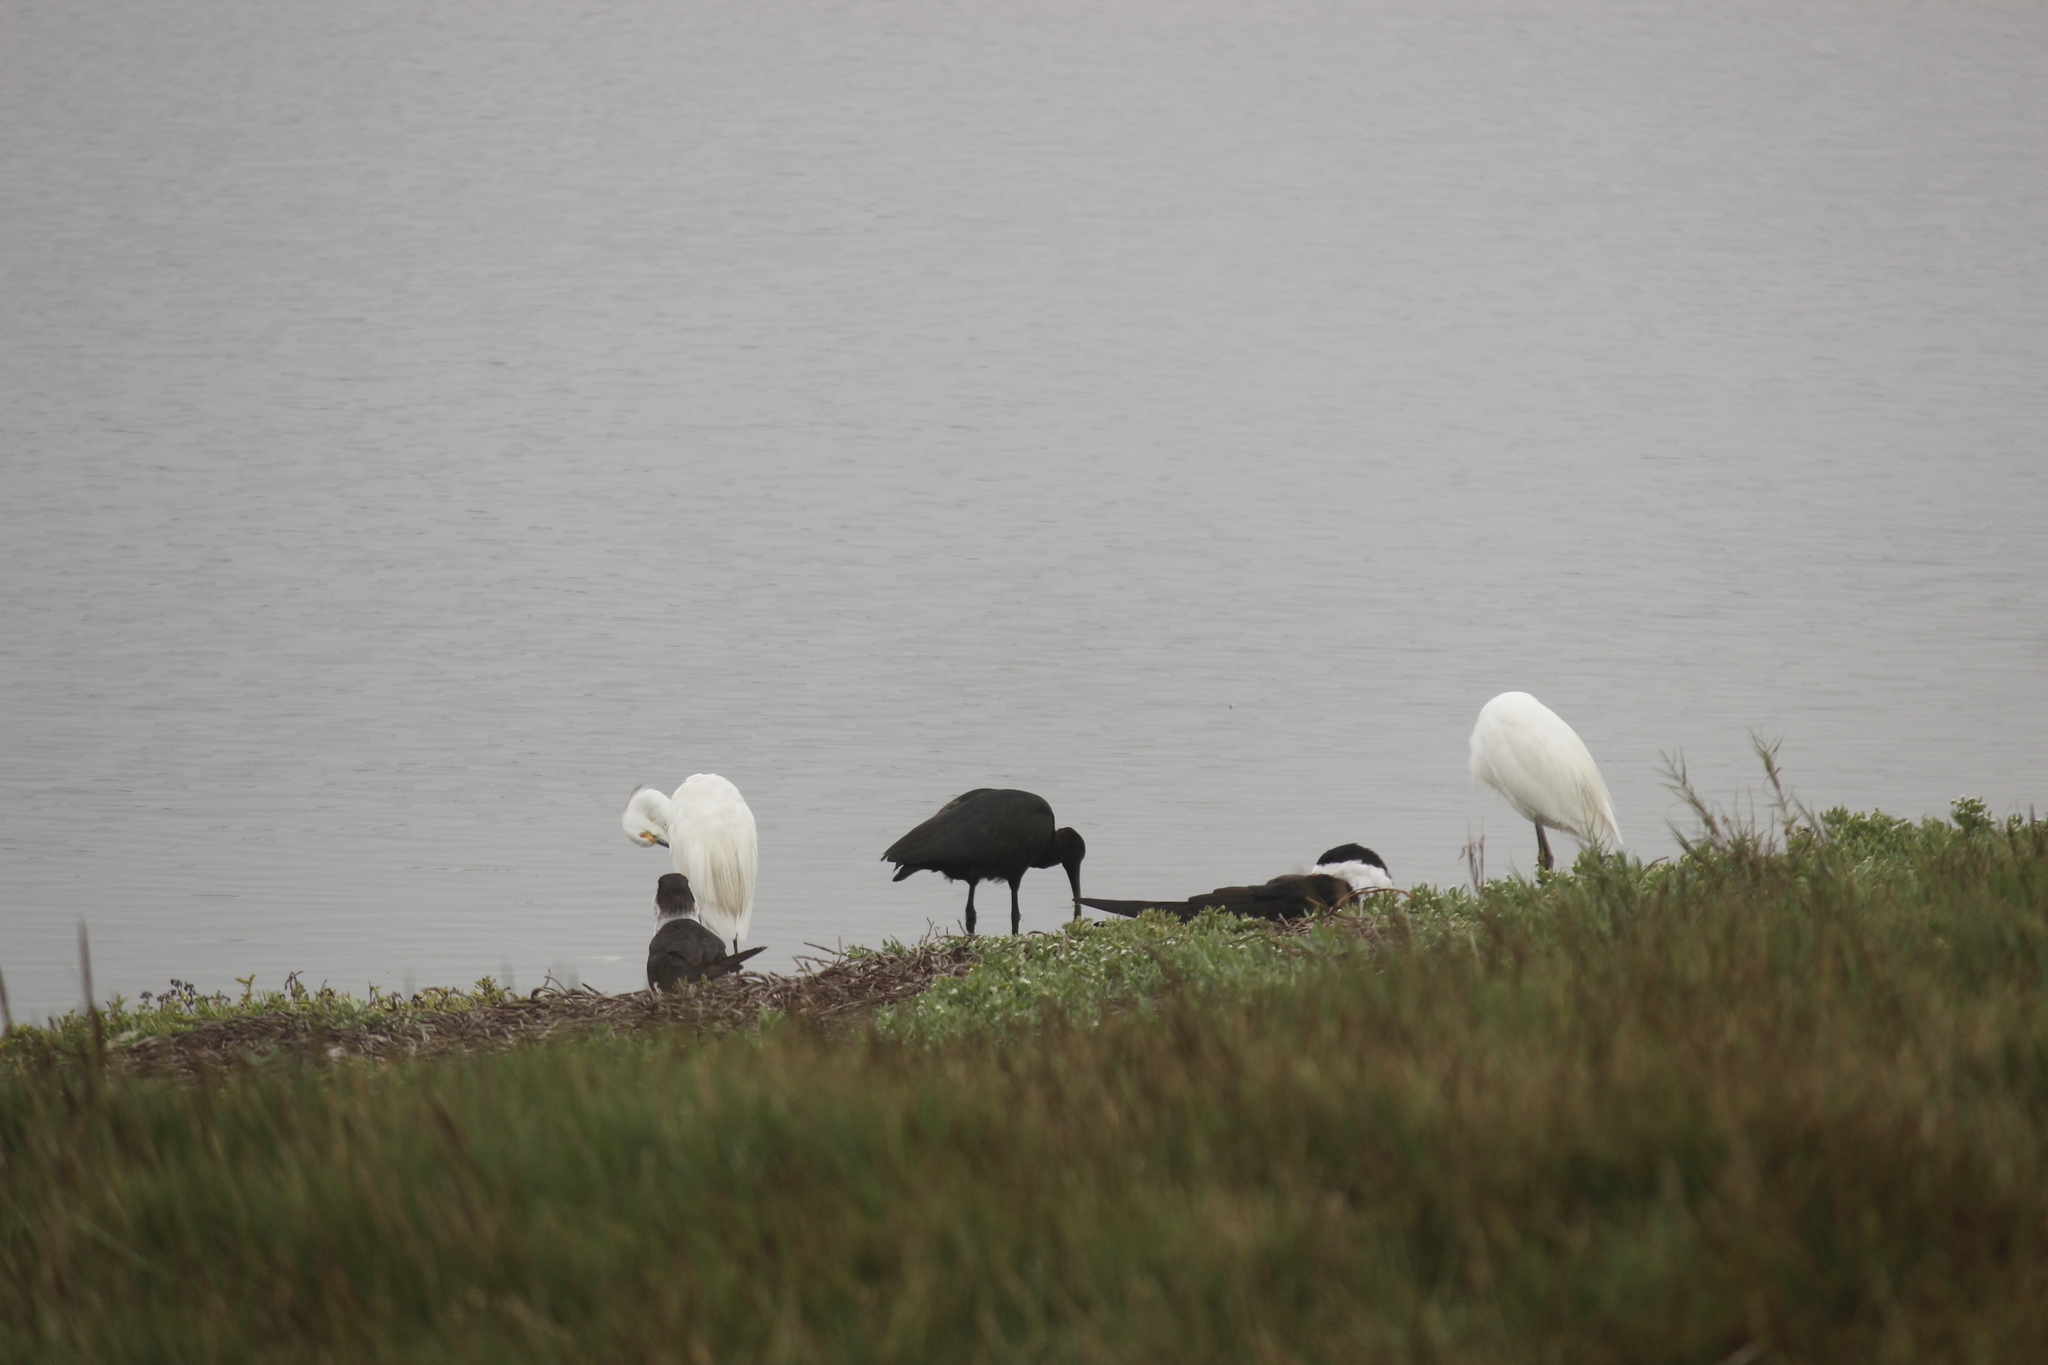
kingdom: Animalia
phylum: Chordata
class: Aves
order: Pelecaniformes
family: Threskiornithidae
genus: Plegadis
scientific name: Plegadis ridgwayi
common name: Puna ibis
